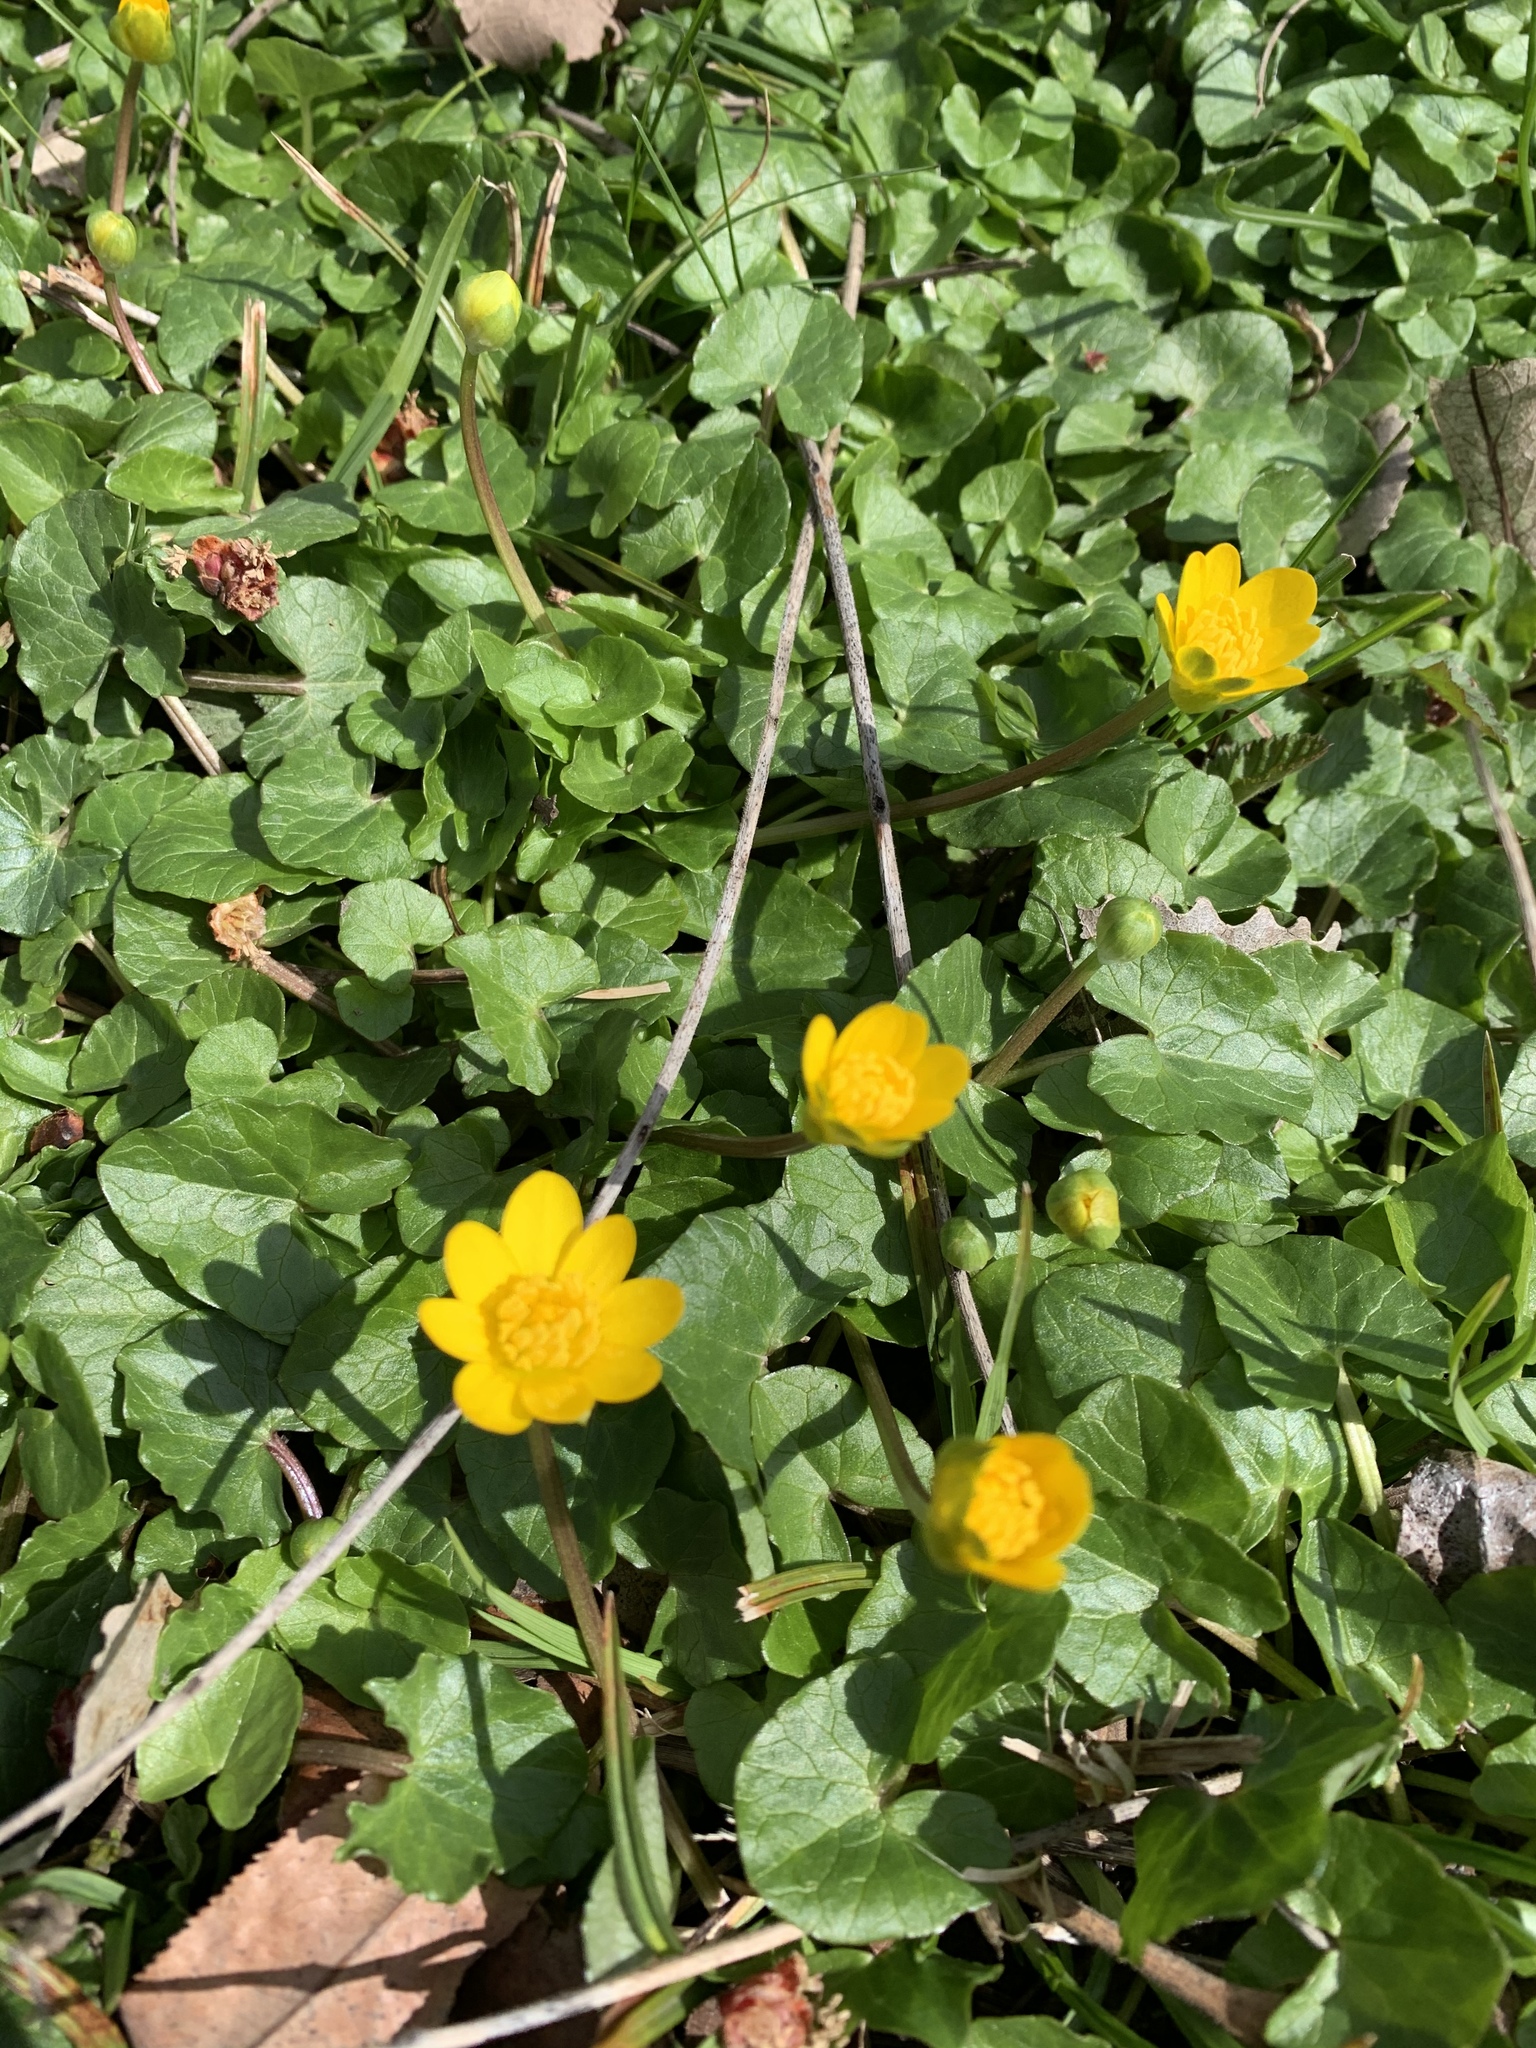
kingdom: Plantae
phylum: Tracheophyta
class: Magnoliopsida
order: Ranunculales
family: Ranunculaceae
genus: Ficaria
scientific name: Ficaria verna
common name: Lesser celandine
